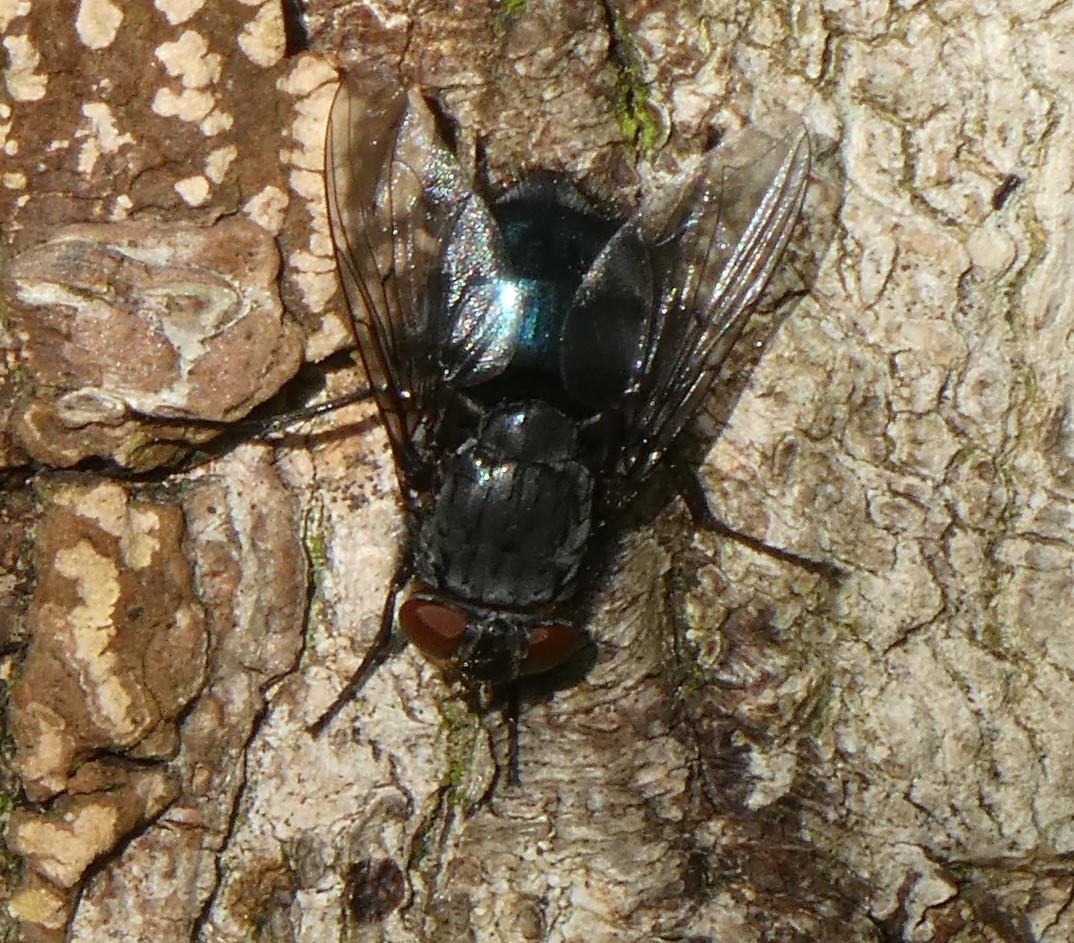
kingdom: Animalia
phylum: Arthropoda
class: Insecta
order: Diptera
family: Calliphoridae
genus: Calliphora
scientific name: Calliphora
